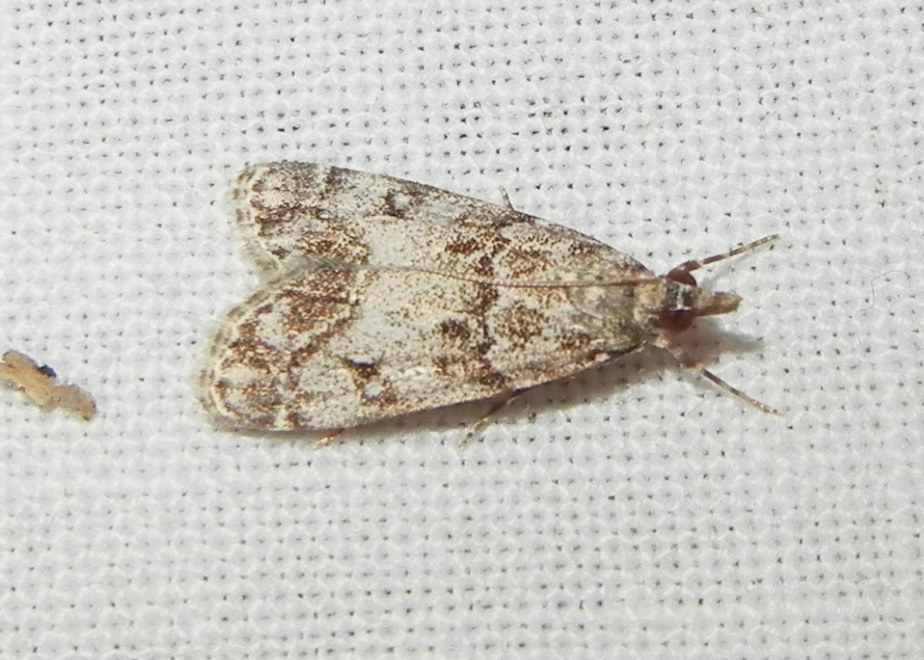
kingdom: Animalia
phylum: Arthropoda
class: Insecta
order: Lepidoptera
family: Crambidae
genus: Eudonia
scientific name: Eudonia lacustrata
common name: Little grey
